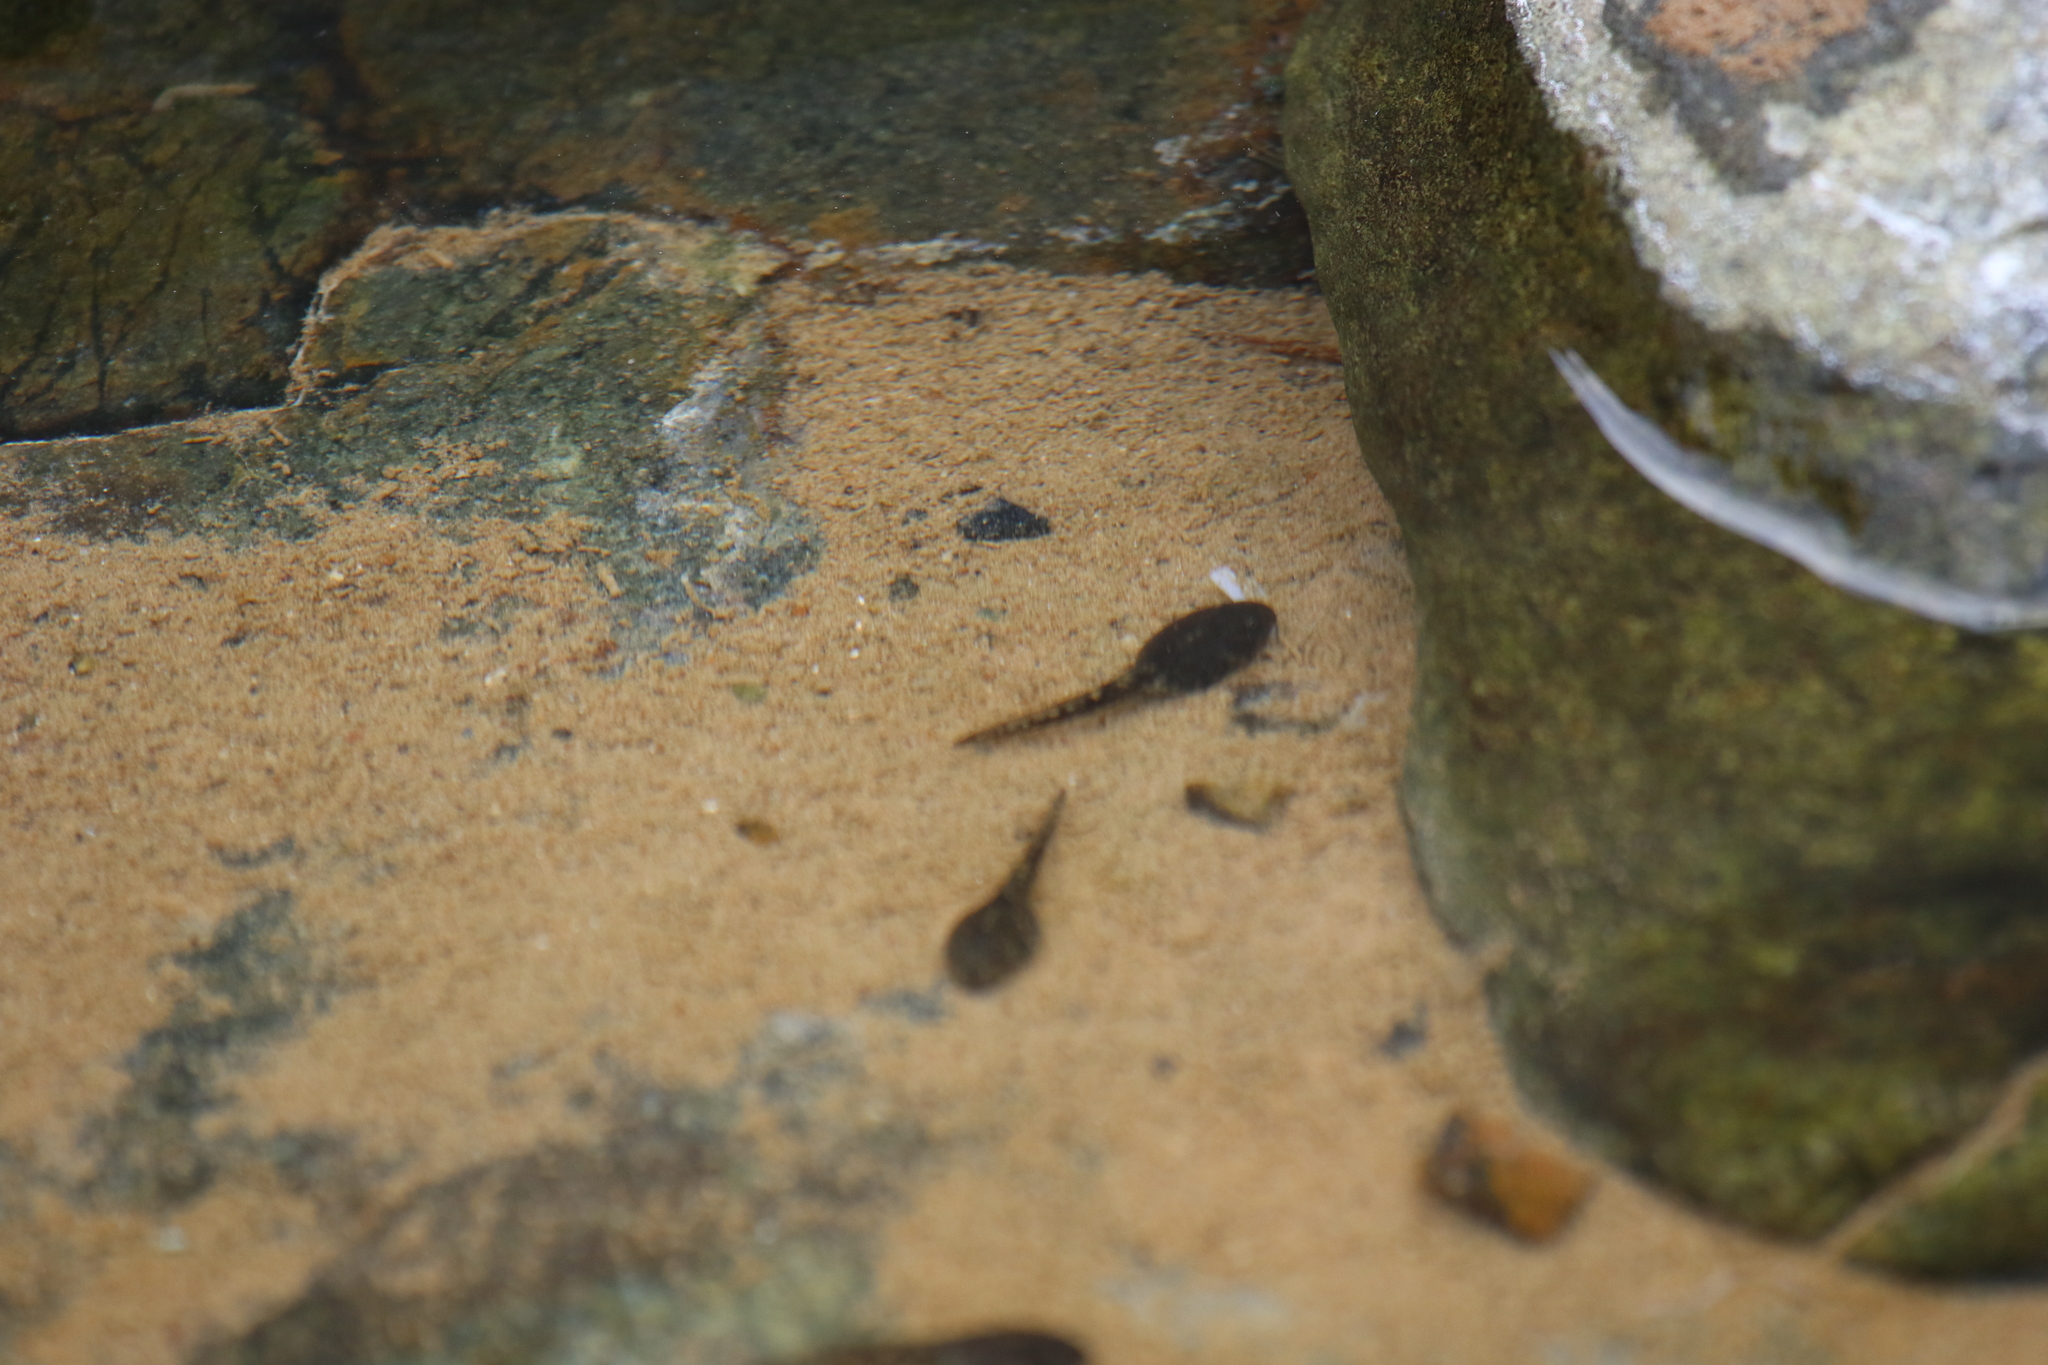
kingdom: Animalia
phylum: Chordata
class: Amphibia
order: Anura
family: Bufonidae
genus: Sclerophrys
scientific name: Sclerophrys arabica
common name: Arabian toad
